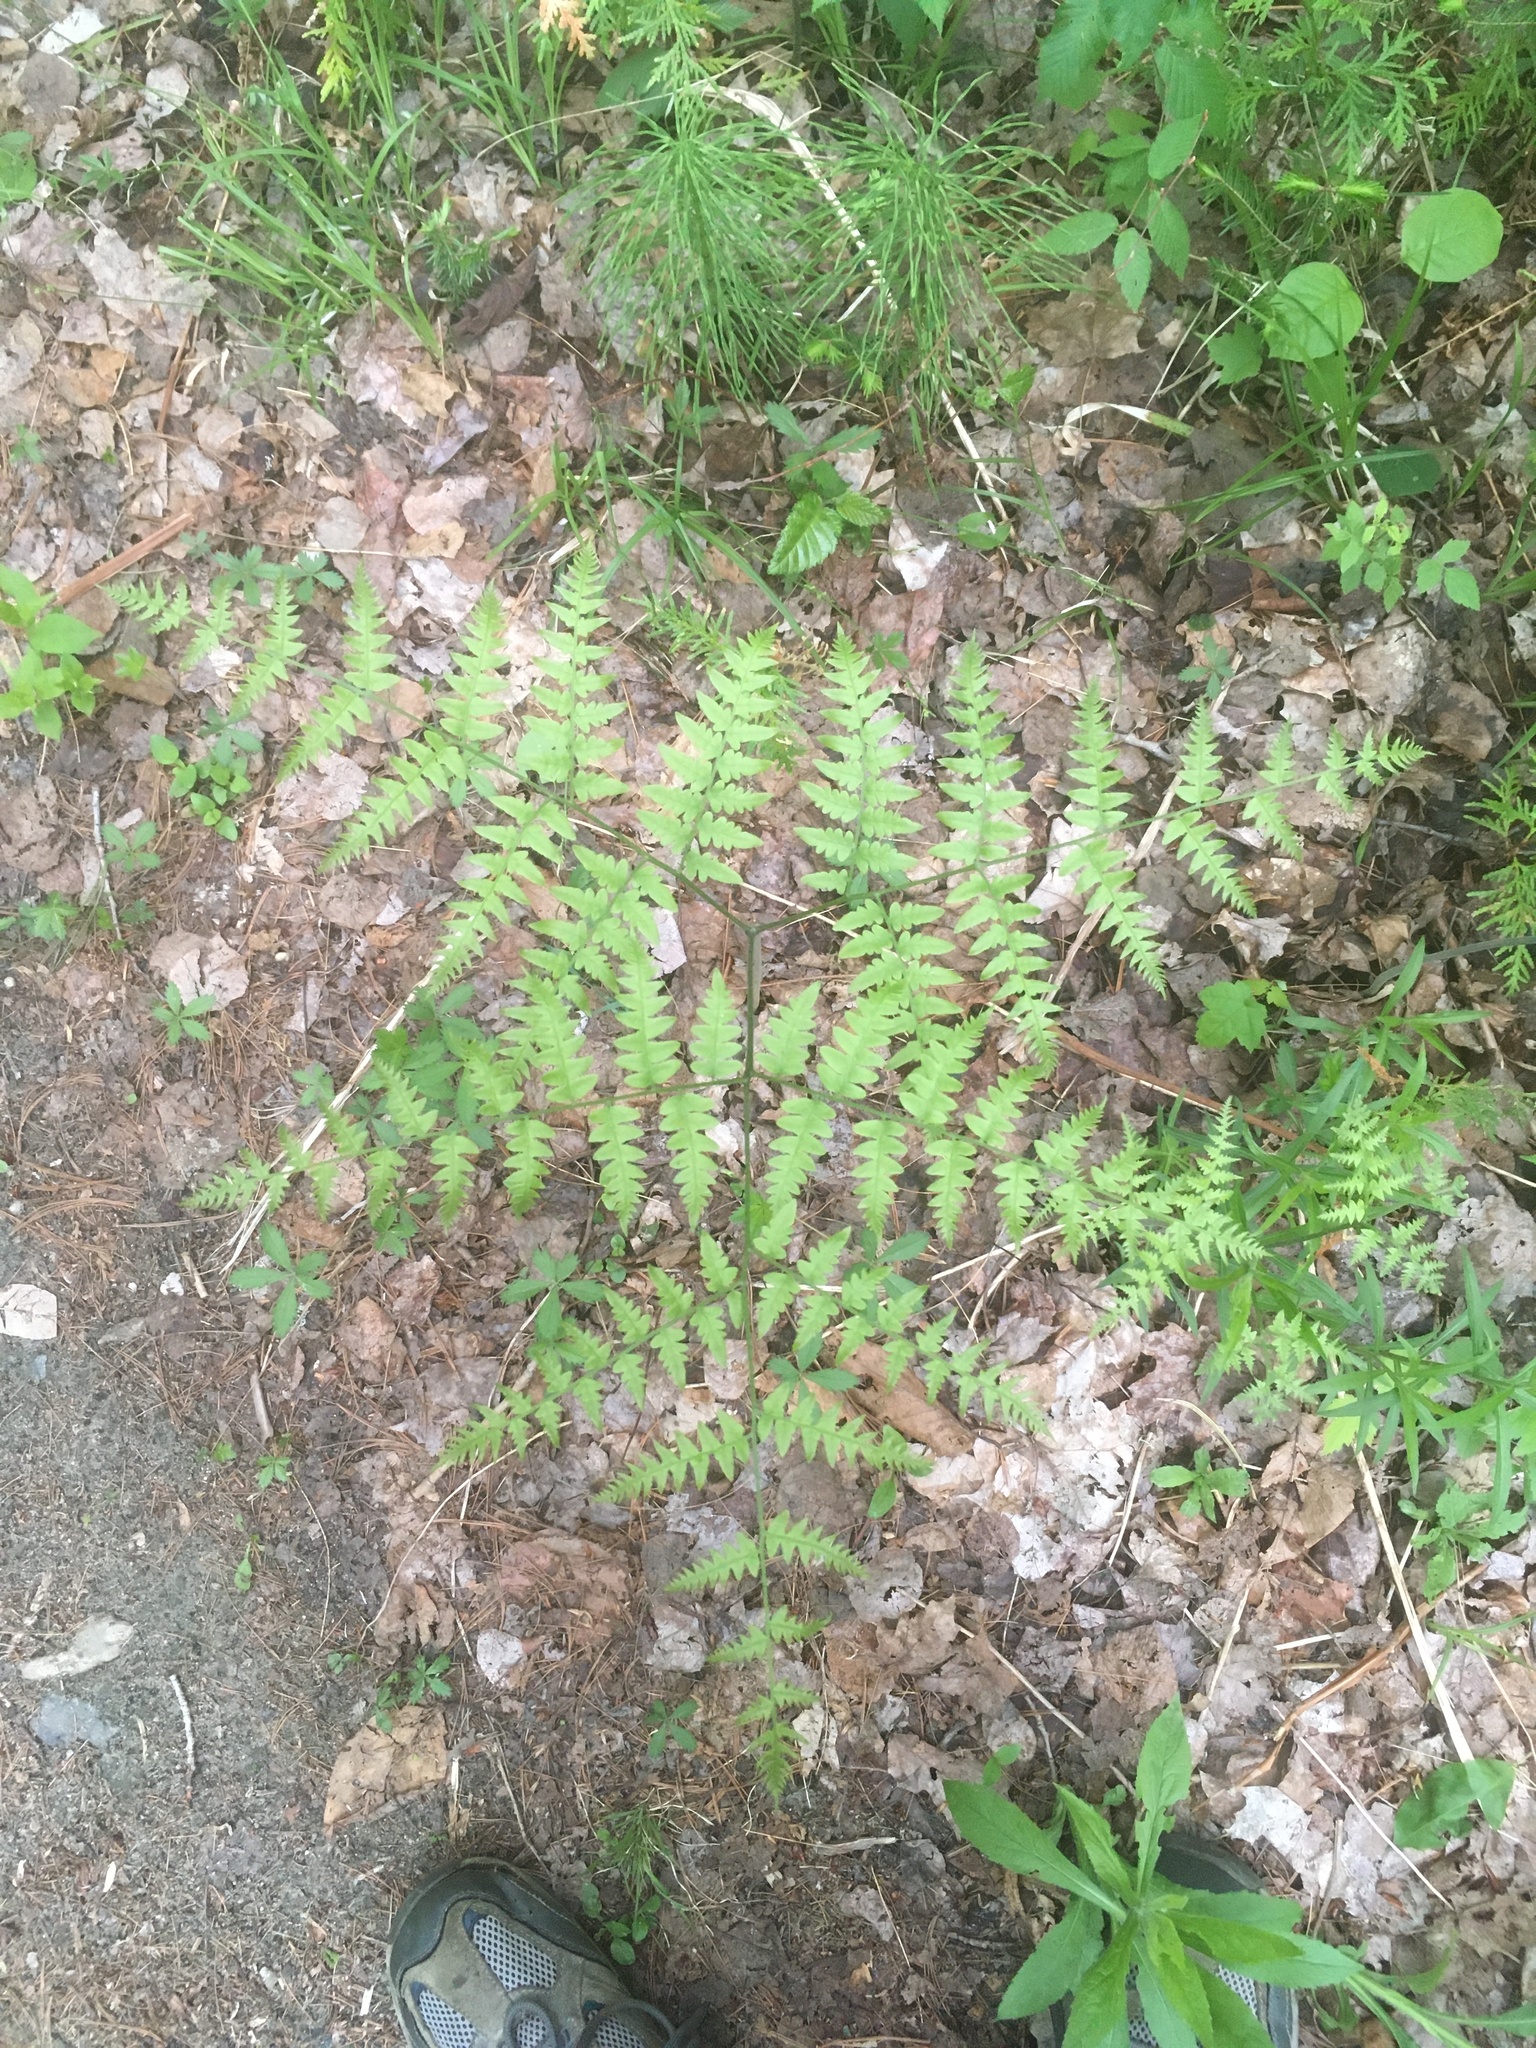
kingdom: Plantae
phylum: Tracheophyta
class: Polypodiopsida
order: Polypodiales
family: Dennstaedtiaceae
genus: Pteridium
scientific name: Pteridium aquilinum
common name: Bracken
